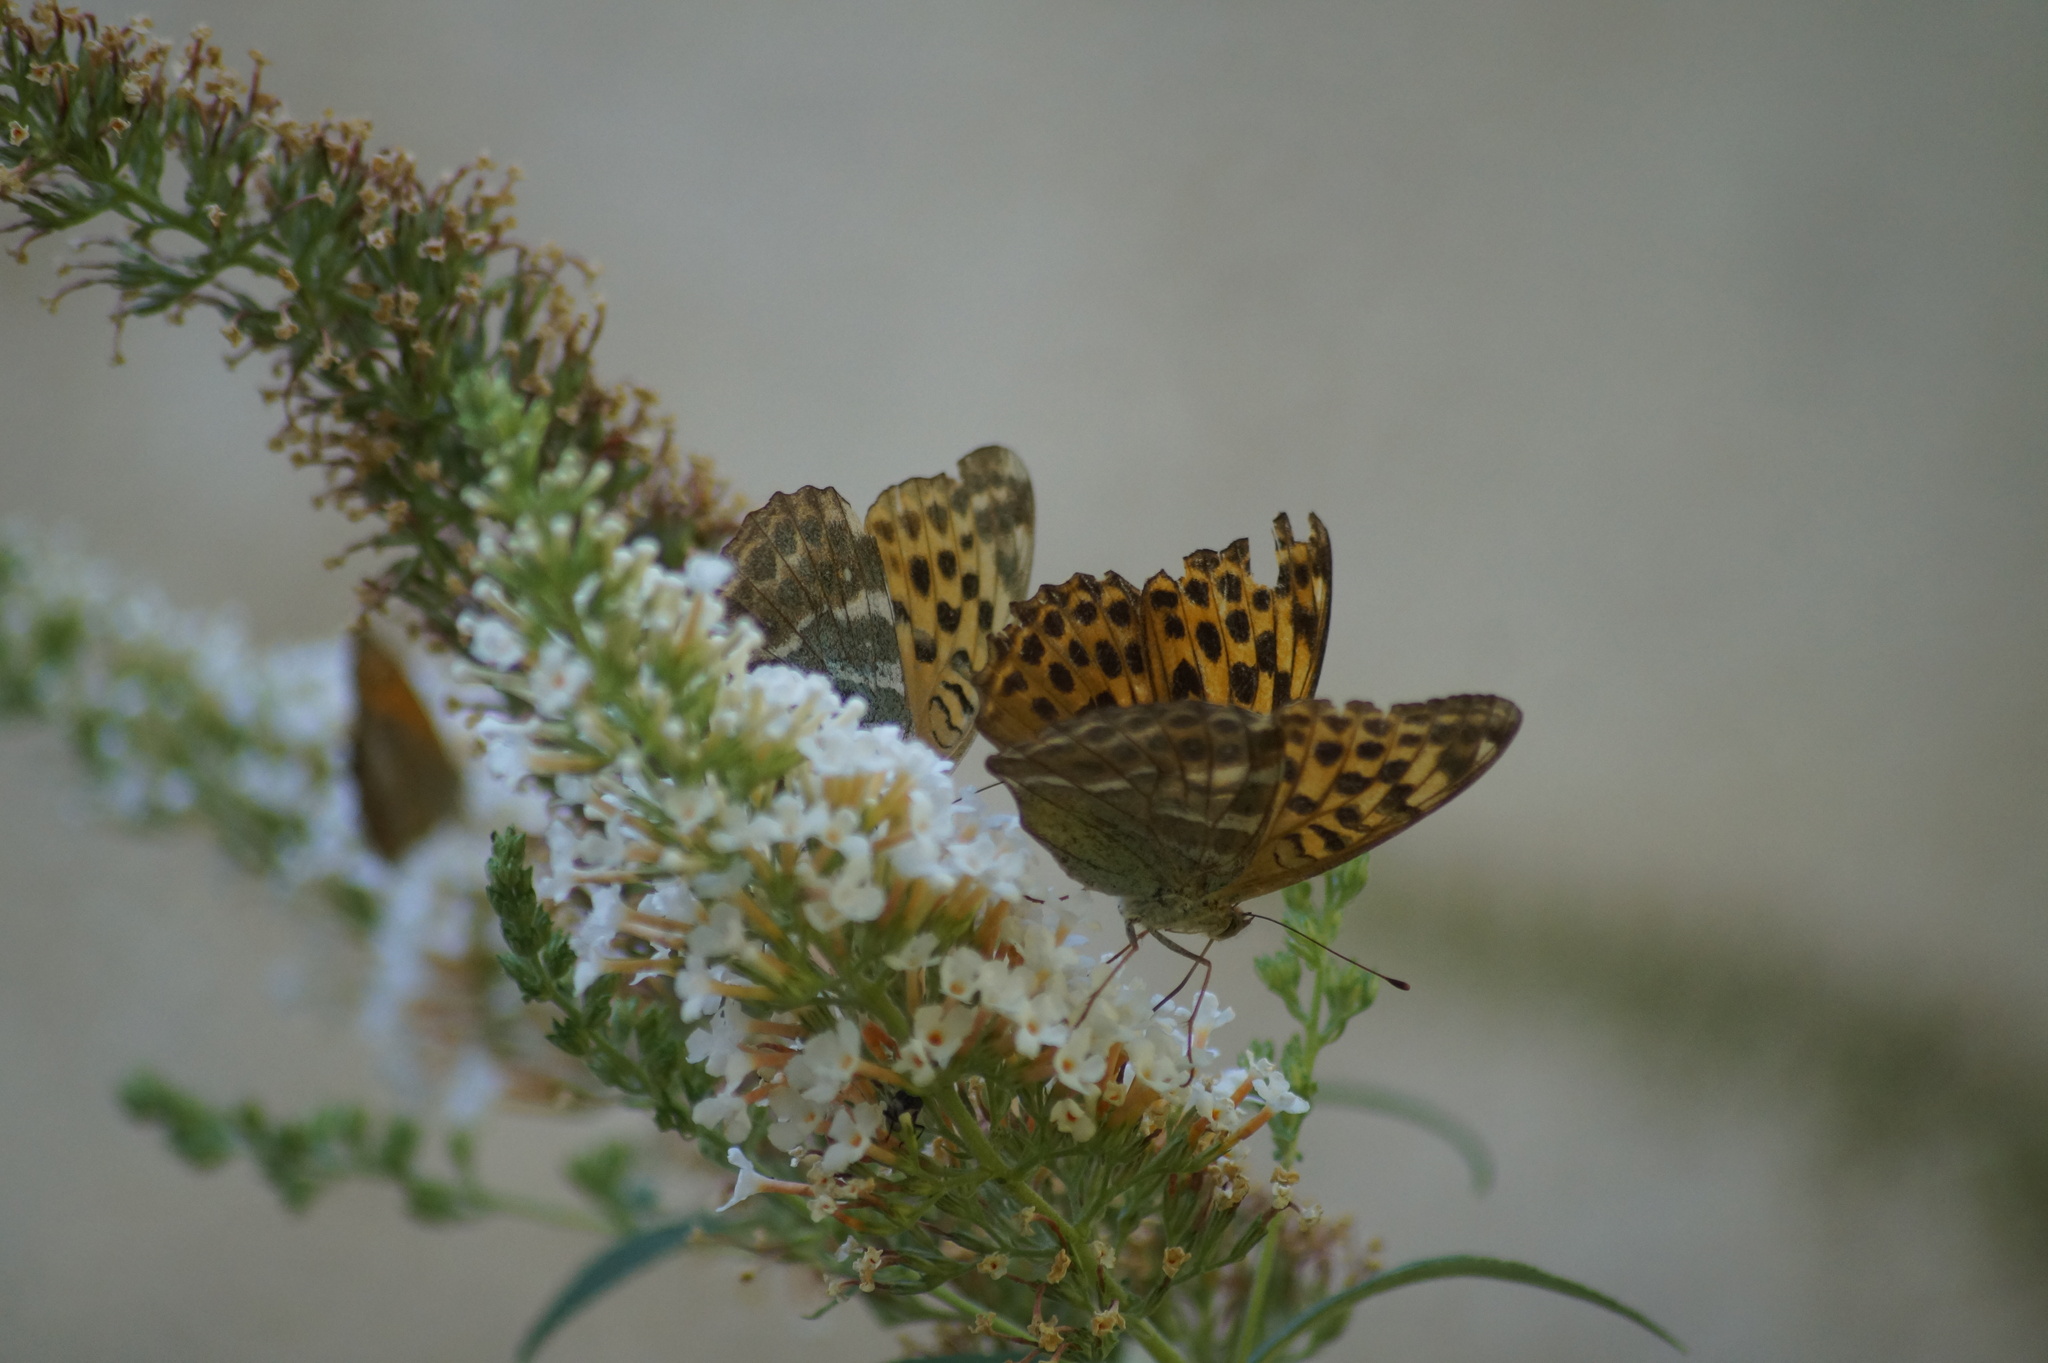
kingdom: Animalia
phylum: Arthropoda
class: Insecta
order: Lepidoptera
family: Nymphalidae
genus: Argynnis
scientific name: Argynnis paphia
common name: Silver-washed fritillary
